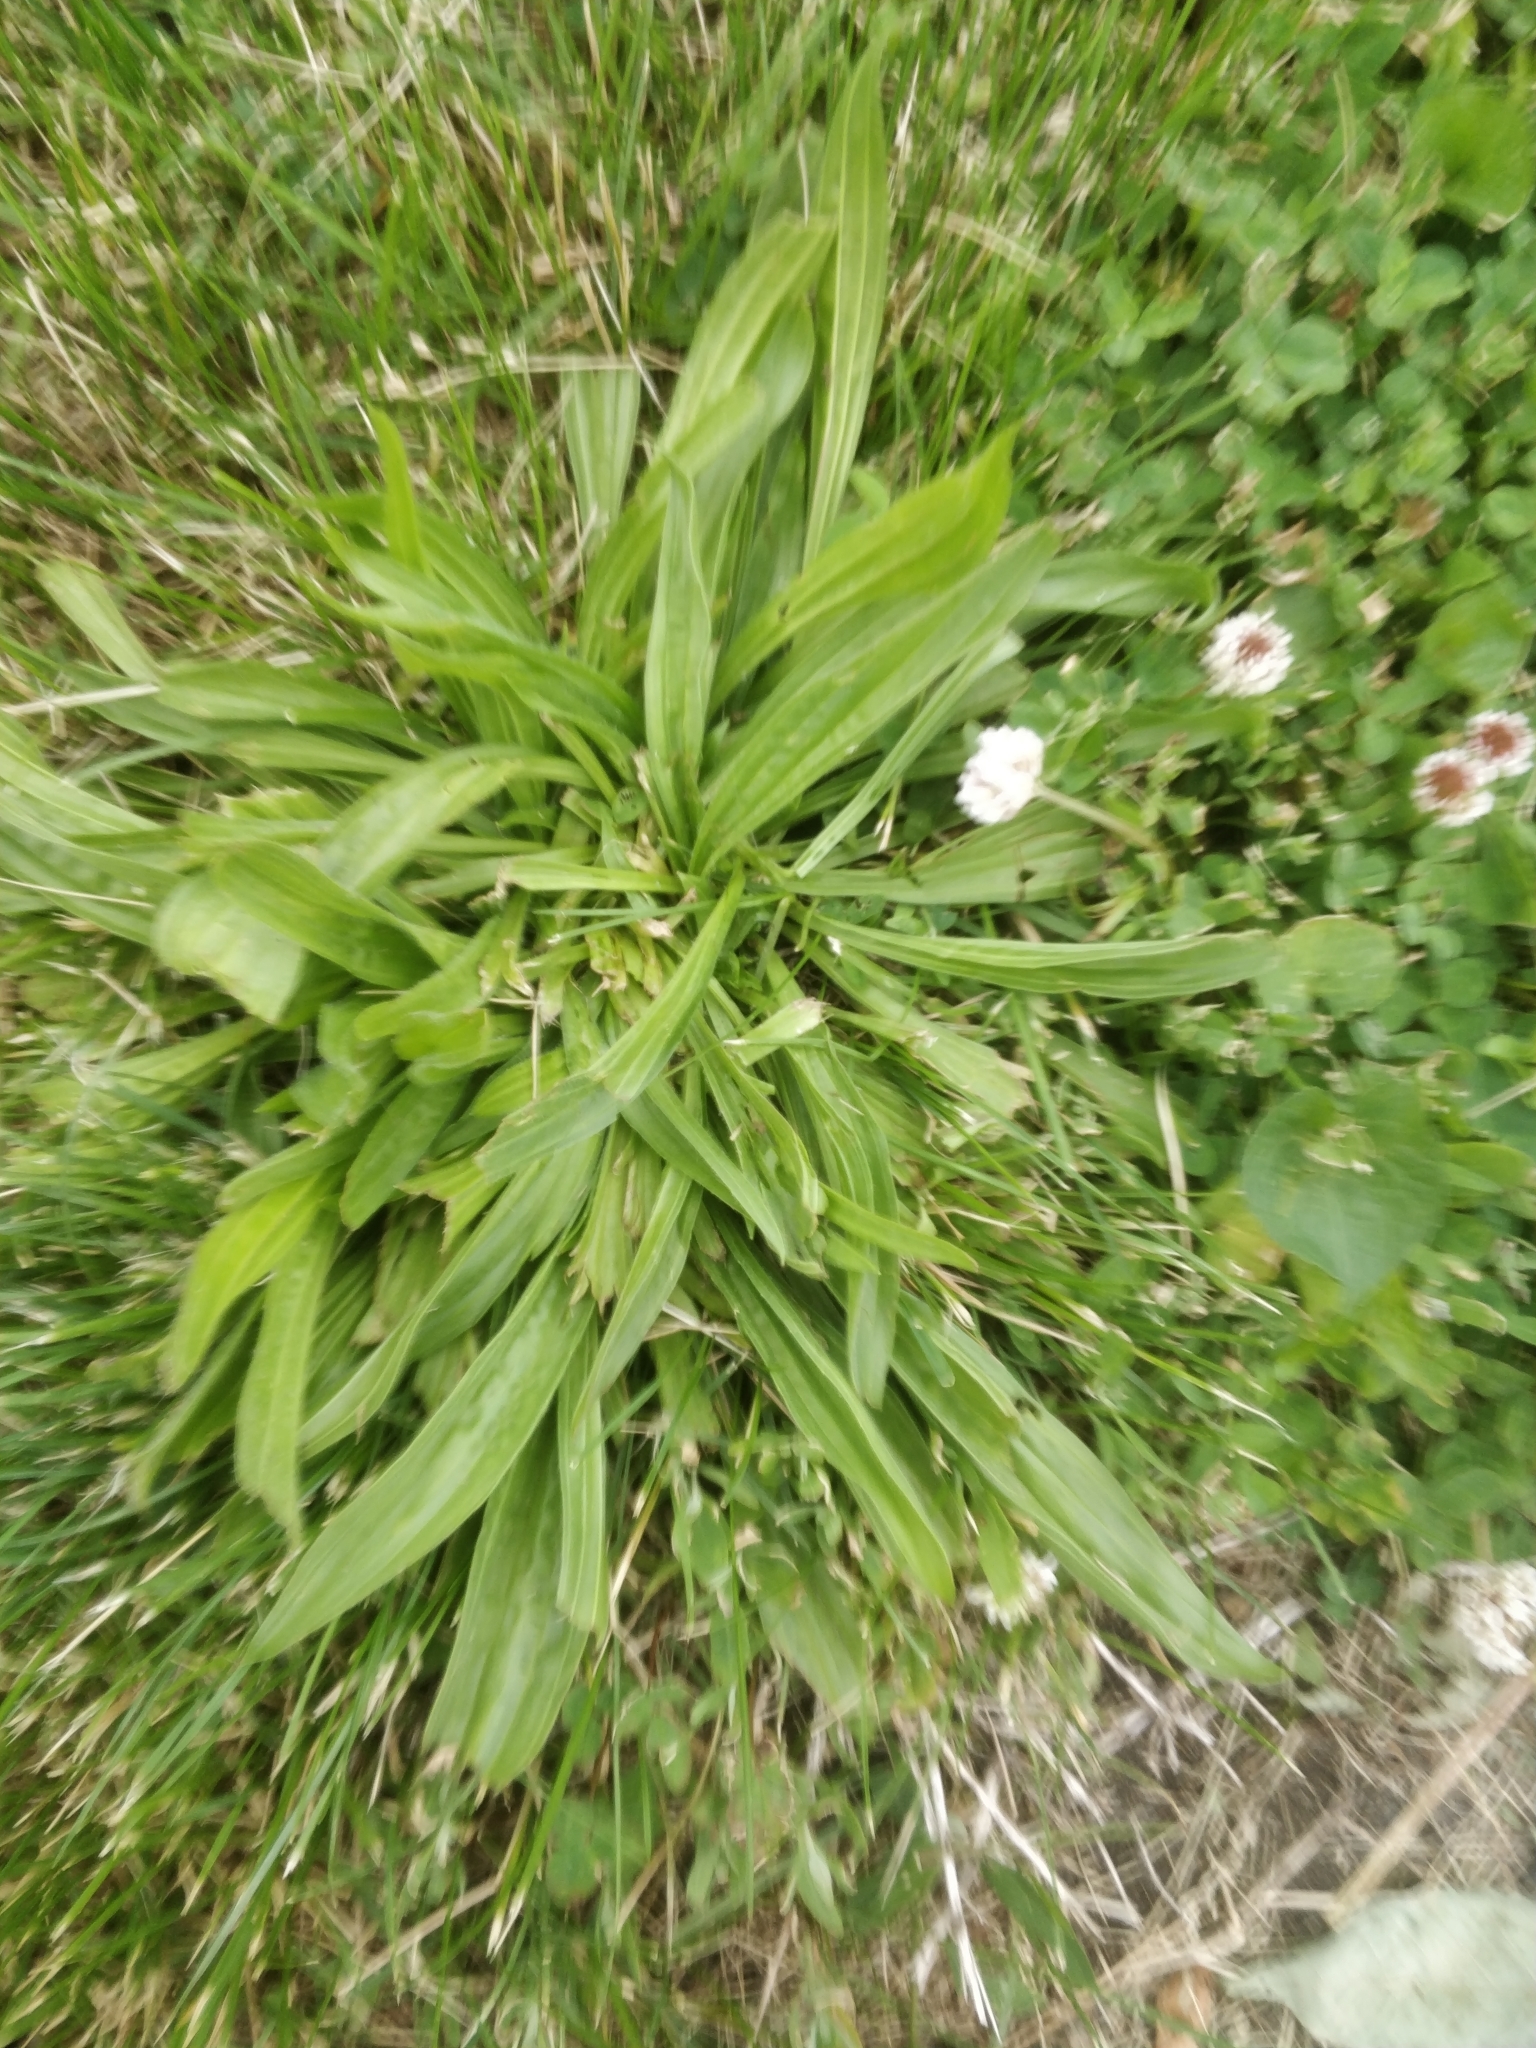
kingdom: Plantae
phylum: Tracheophyta
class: Magnoliopsida
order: Lamiales
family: Plantaginaceae
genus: Plantago
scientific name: Plantago lanceolata
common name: Ribwort plantain
